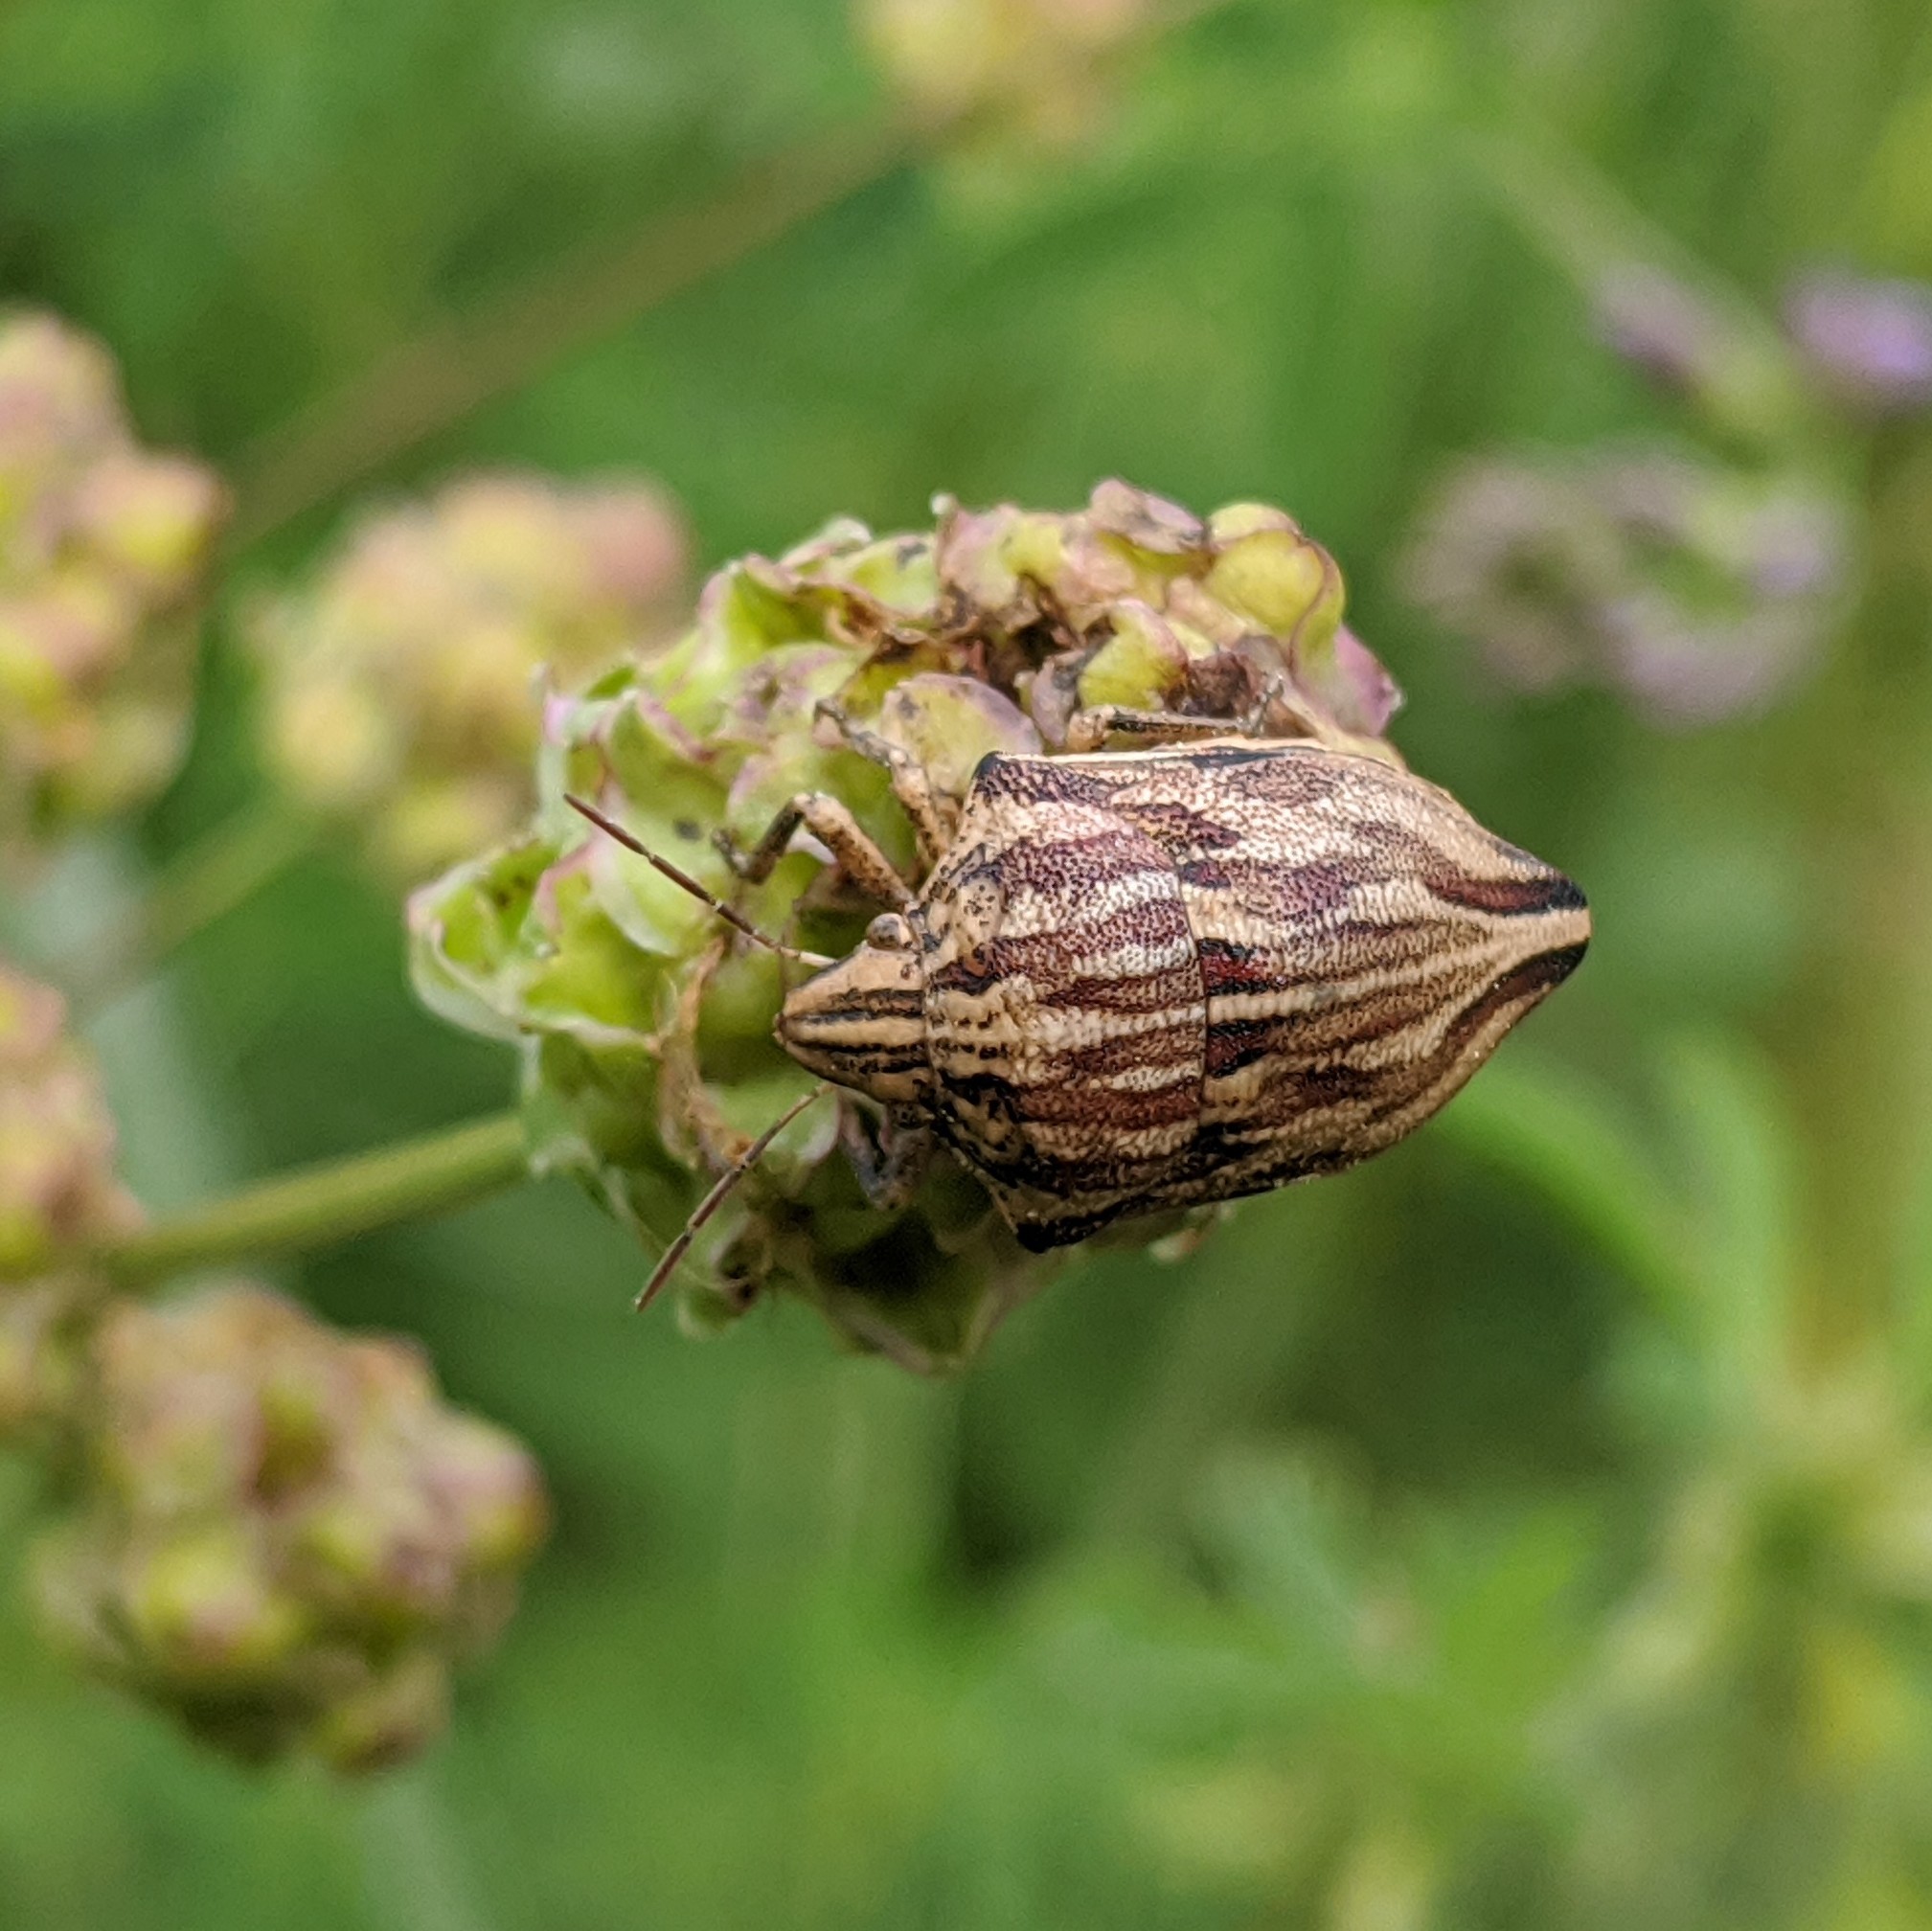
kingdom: Animalia
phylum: Arthropoda
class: Insecta
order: Hemiptera
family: Scutelleridae
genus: Odontotarsus
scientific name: Odontotarsus robustus
